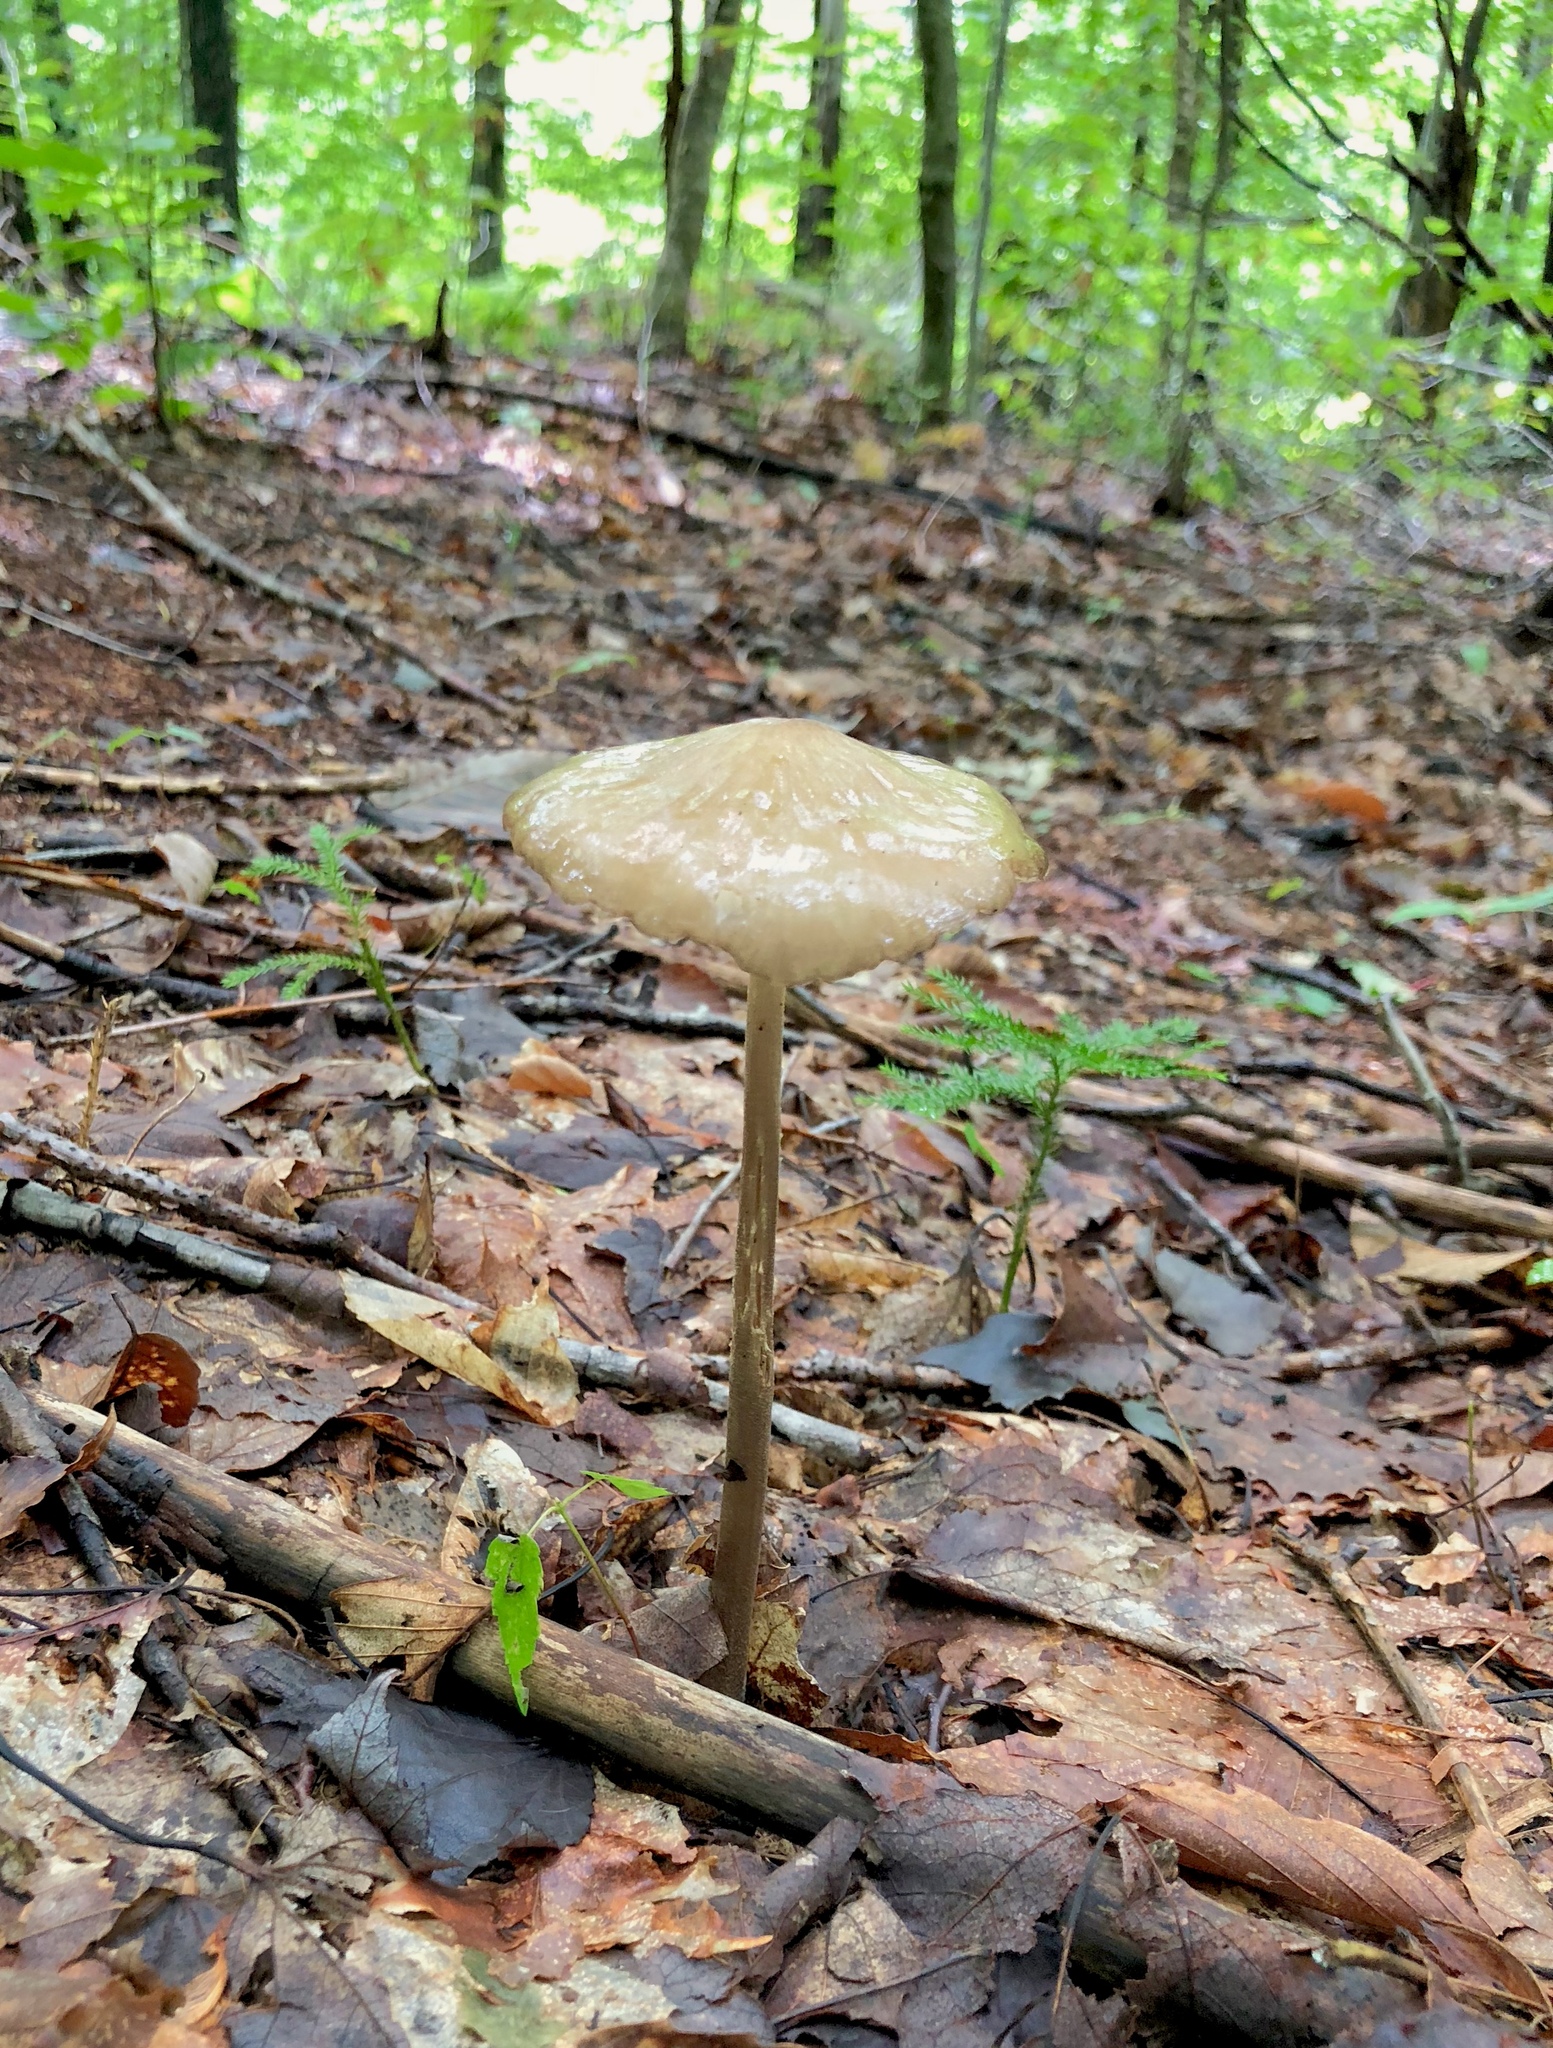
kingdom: Fungi
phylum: Basidiomycota
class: Agaricomycetes
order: Agaricales
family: Physalacriaceae
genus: Hymenopellis
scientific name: Hymenopellis furfuracea
